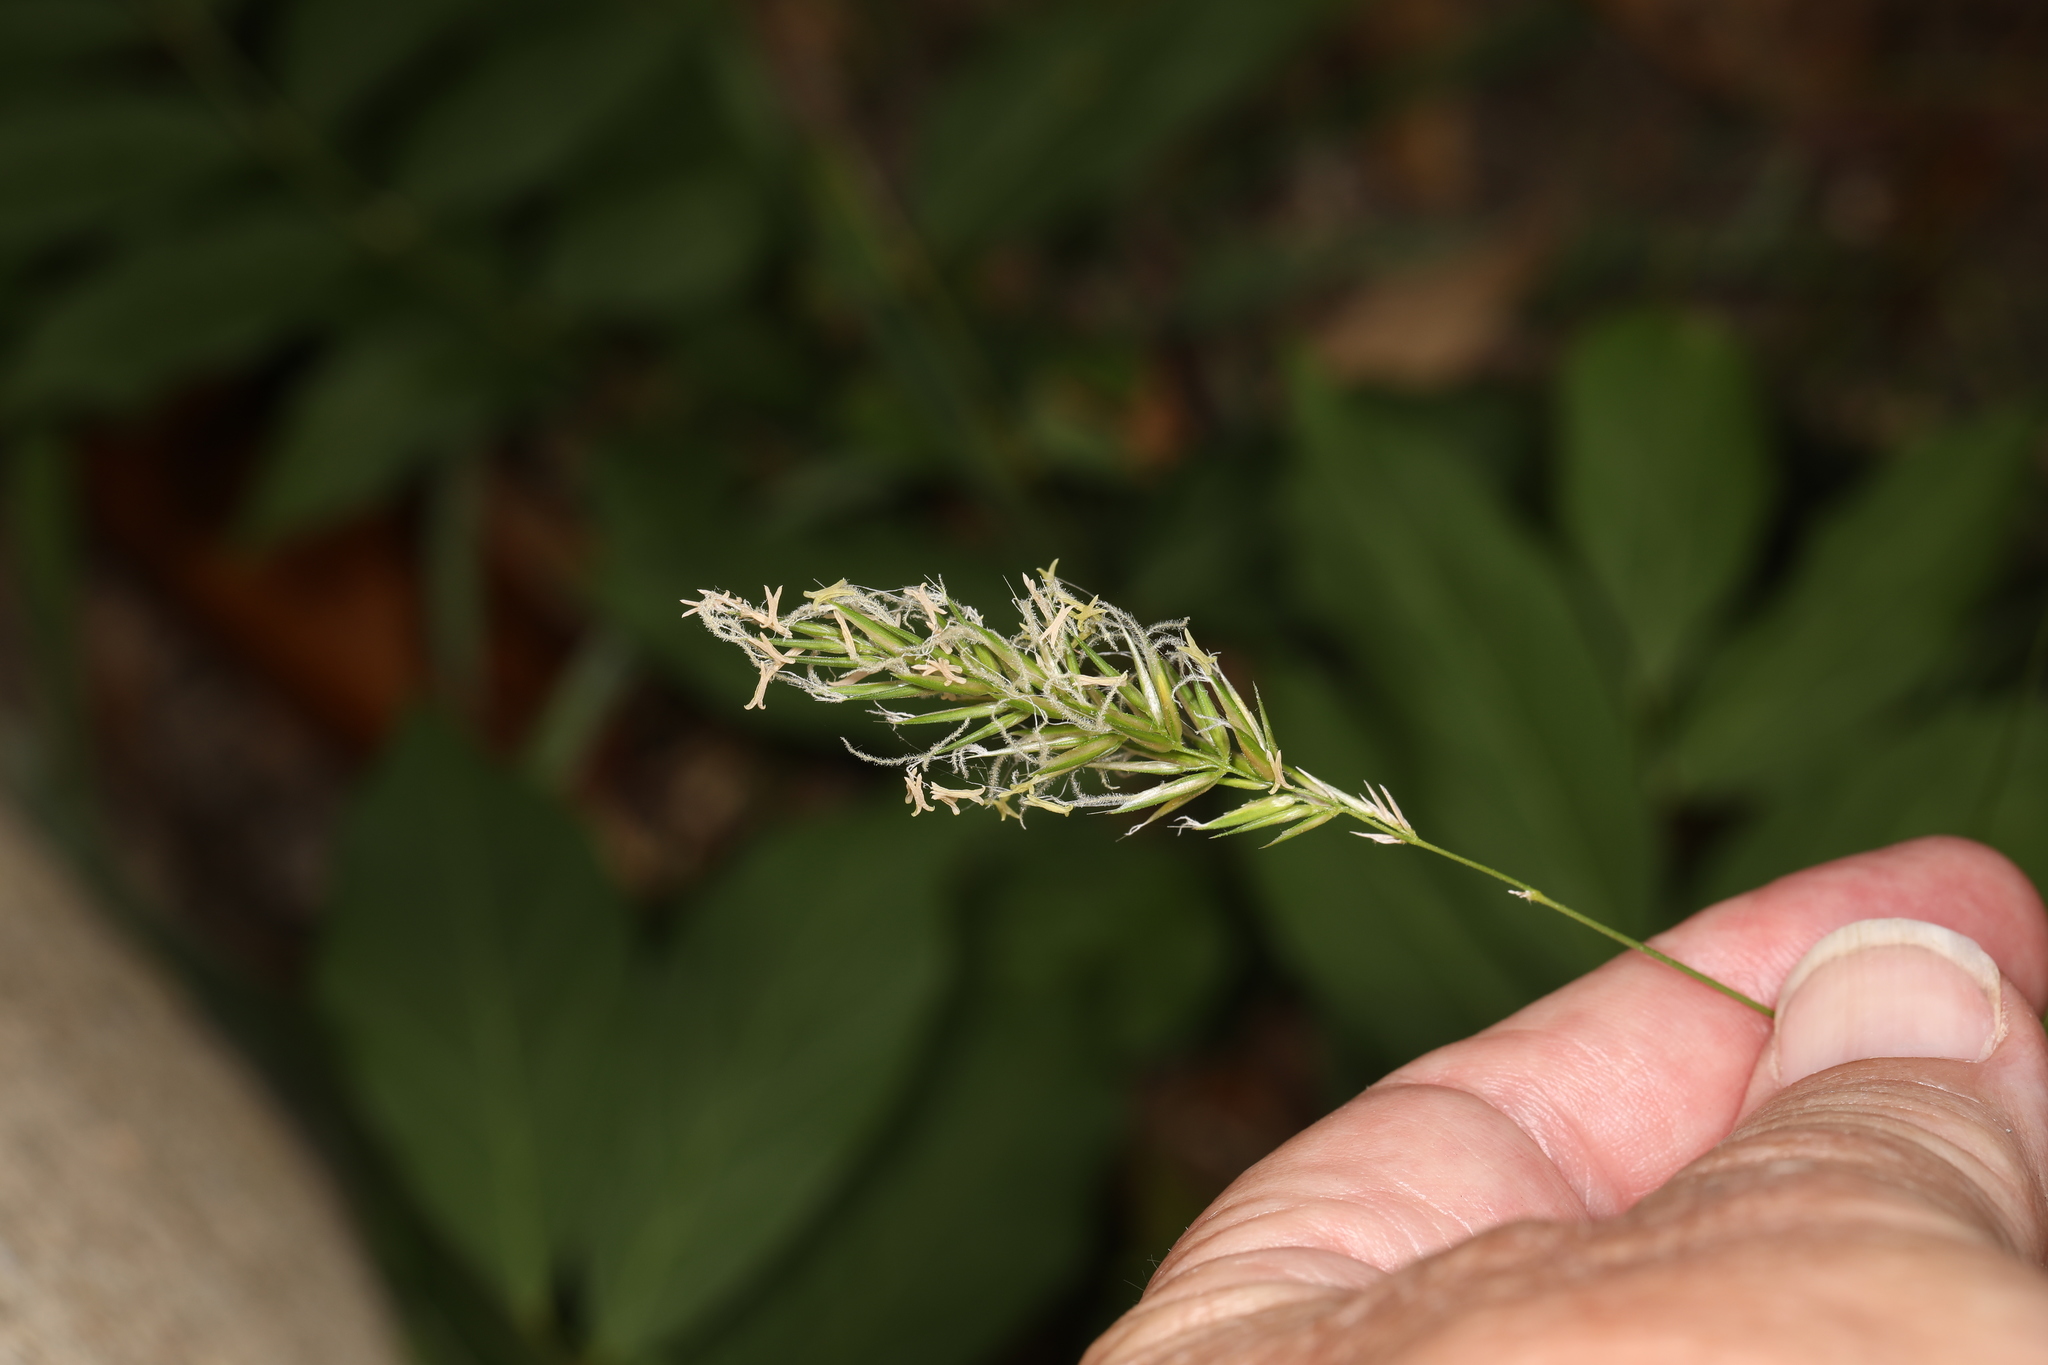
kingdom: Plantae
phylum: Tracheophyta
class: Liliopsida
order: Poales
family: Poaceae
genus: Anthoxanthum
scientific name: Anthoxanthum odoratum
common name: Sweet vernalgrass
